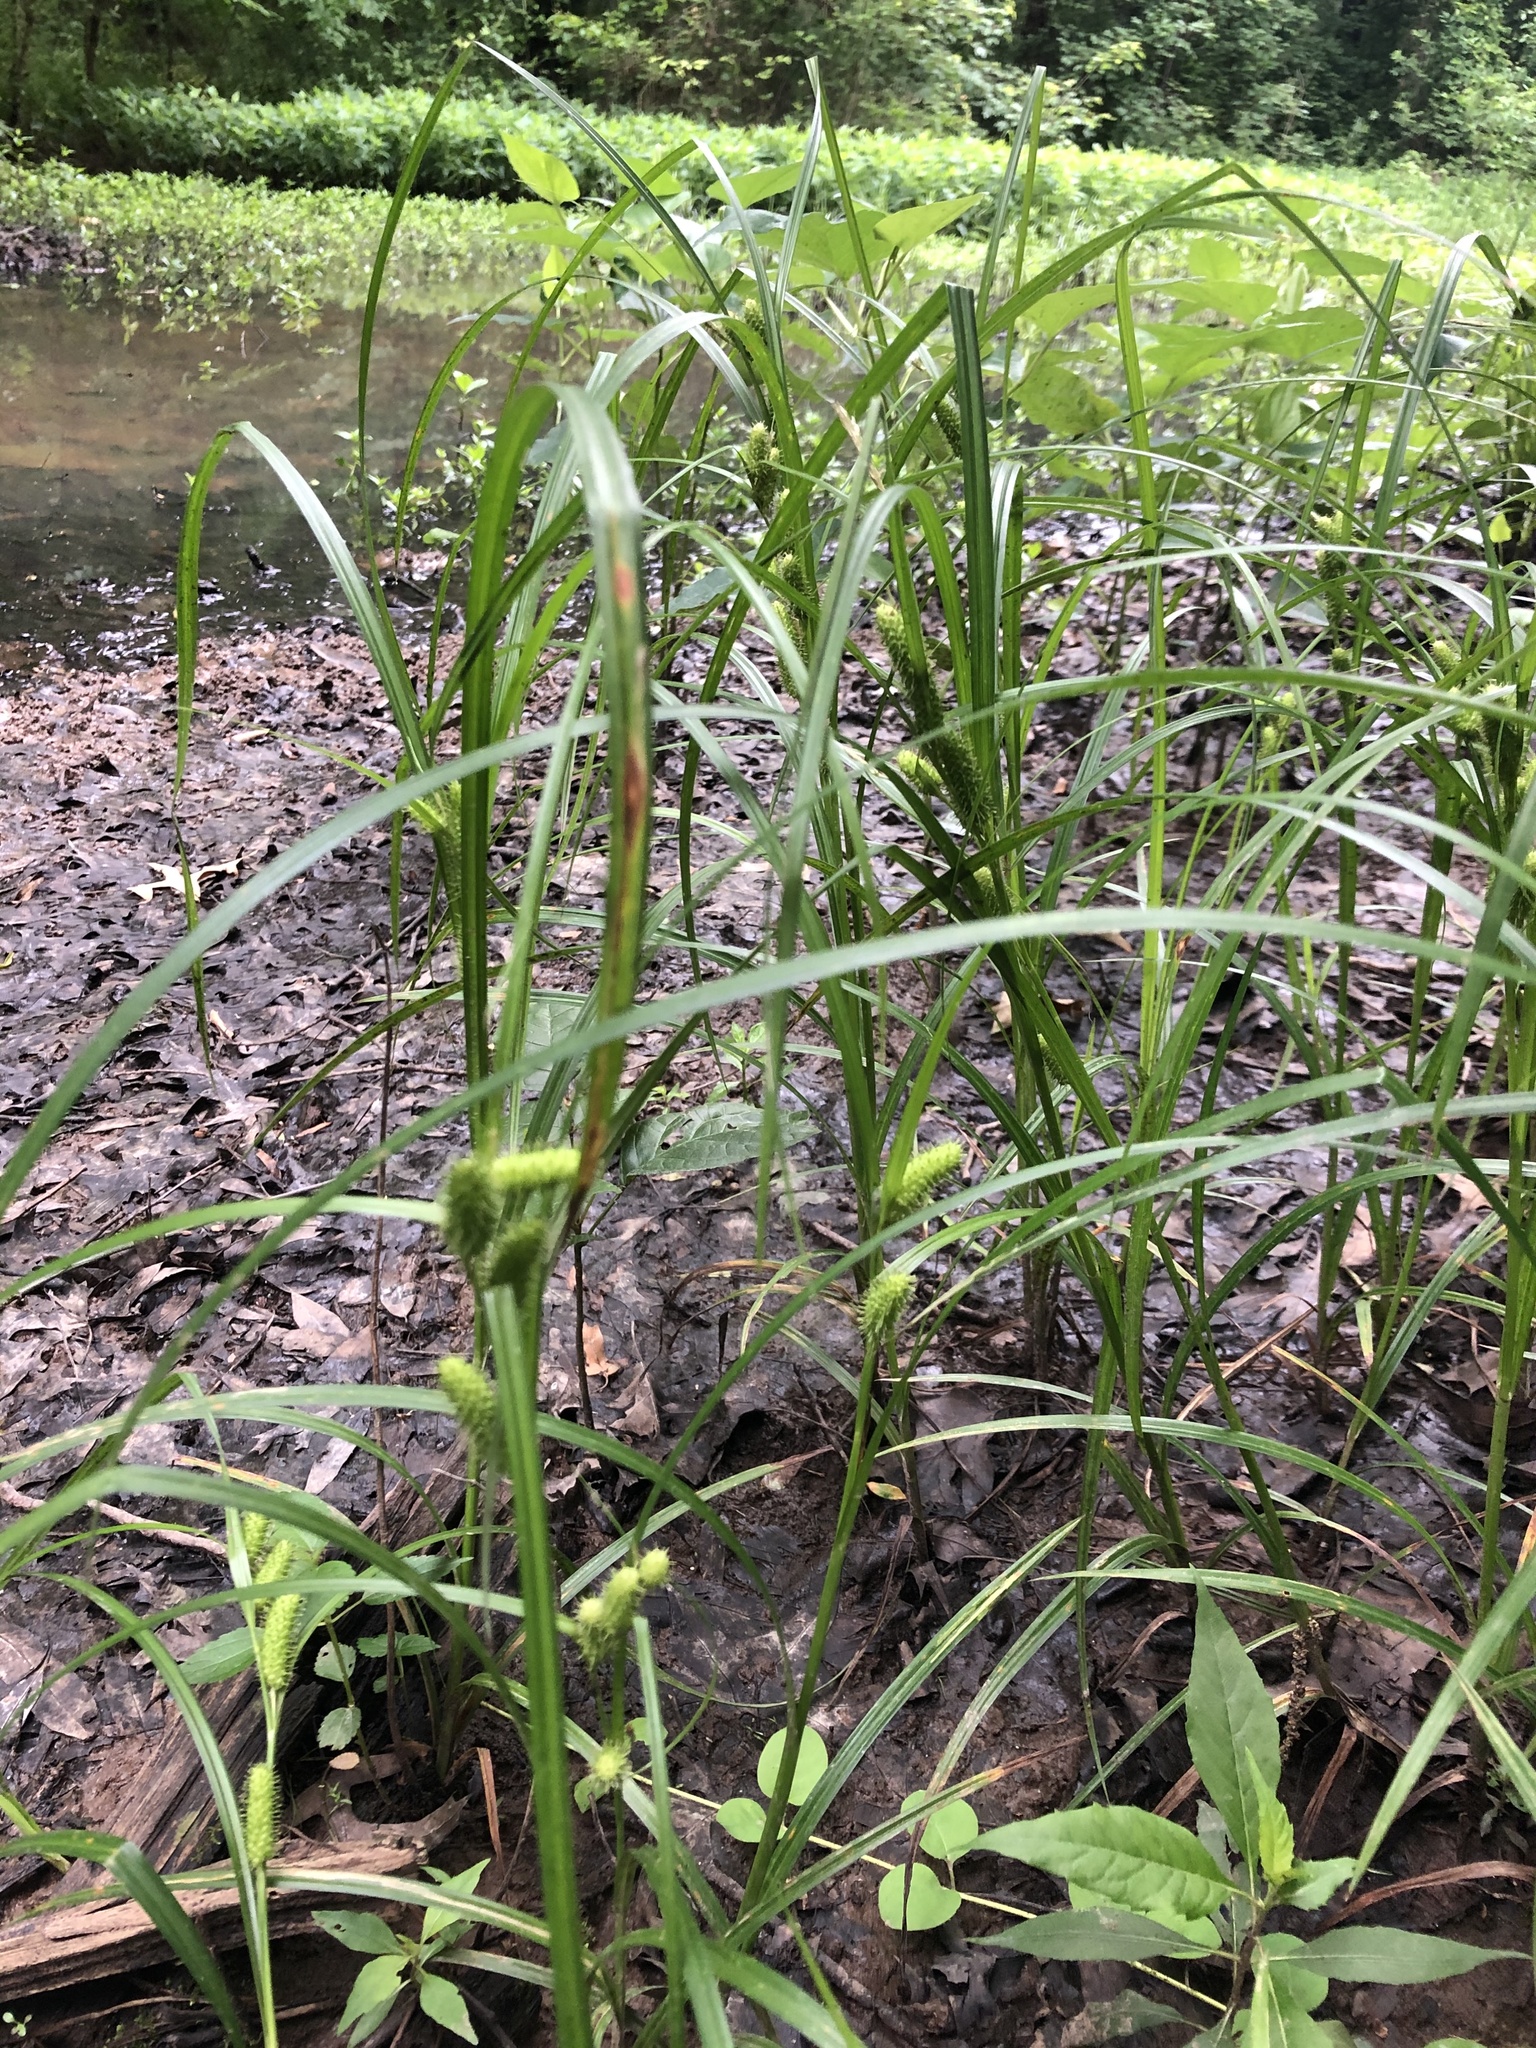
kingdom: Plantae
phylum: Tracheophyta
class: Liliopsida
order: Poales
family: Cyperaceae
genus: Carex
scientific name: Carex aureolensis
